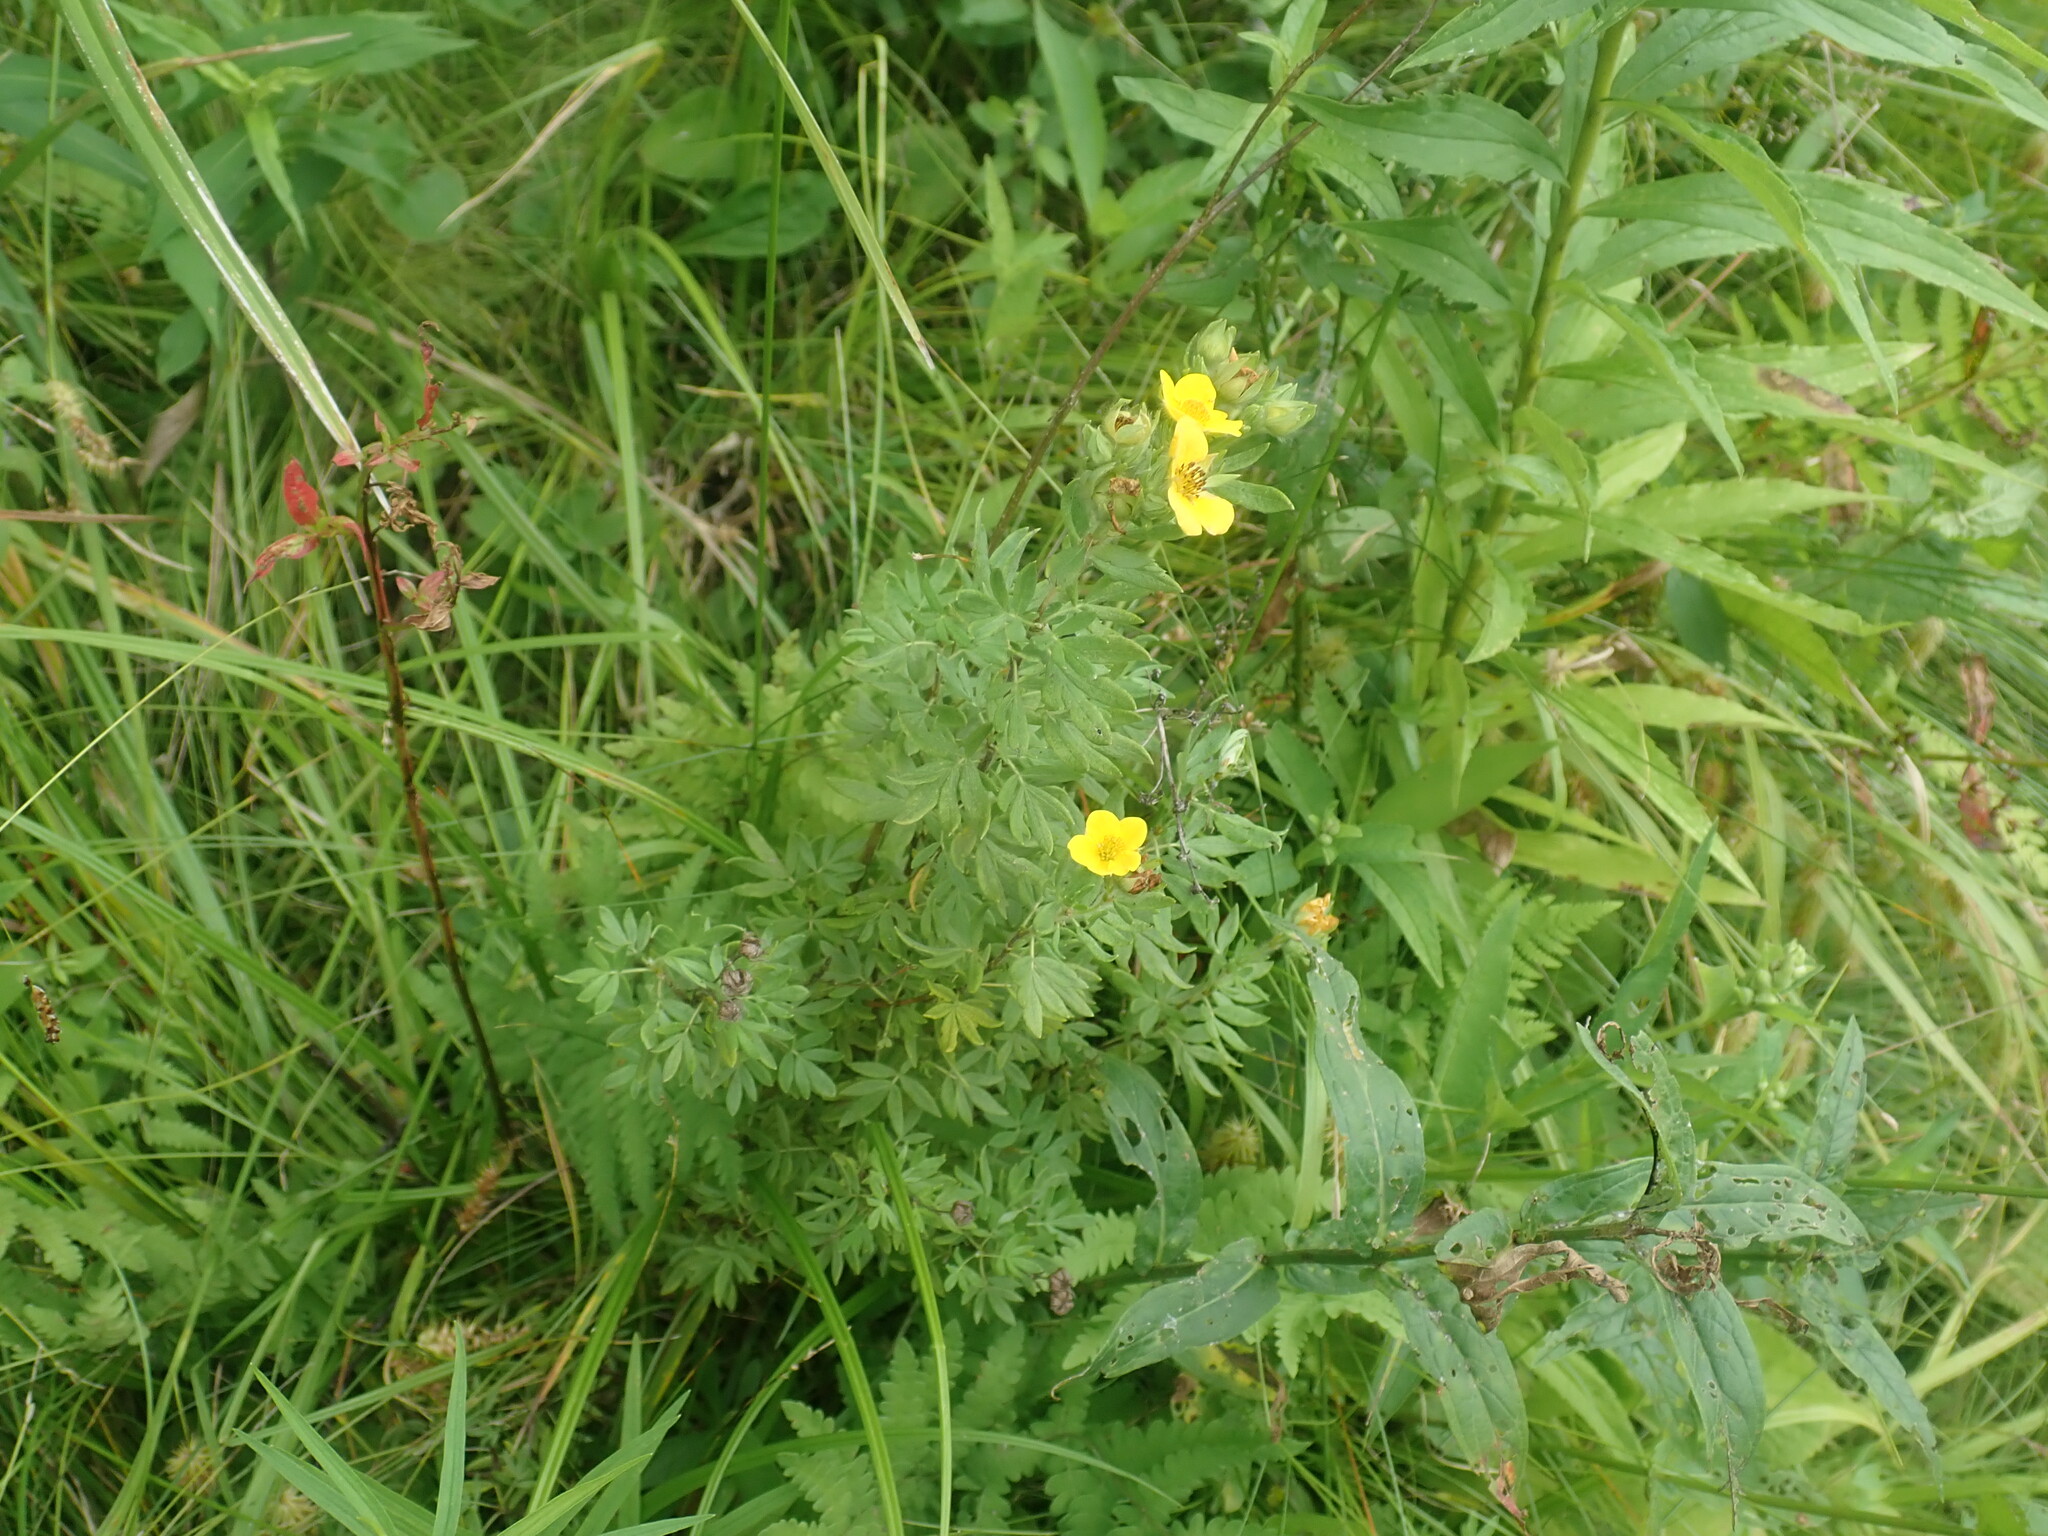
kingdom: Plantae
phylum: Tracheophyta
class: Magnoliopsida
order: Rosales
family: Rosaceae
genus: Dasiphora
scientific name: Dasiphora fruticosa
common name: Shrubby cinquefoil
